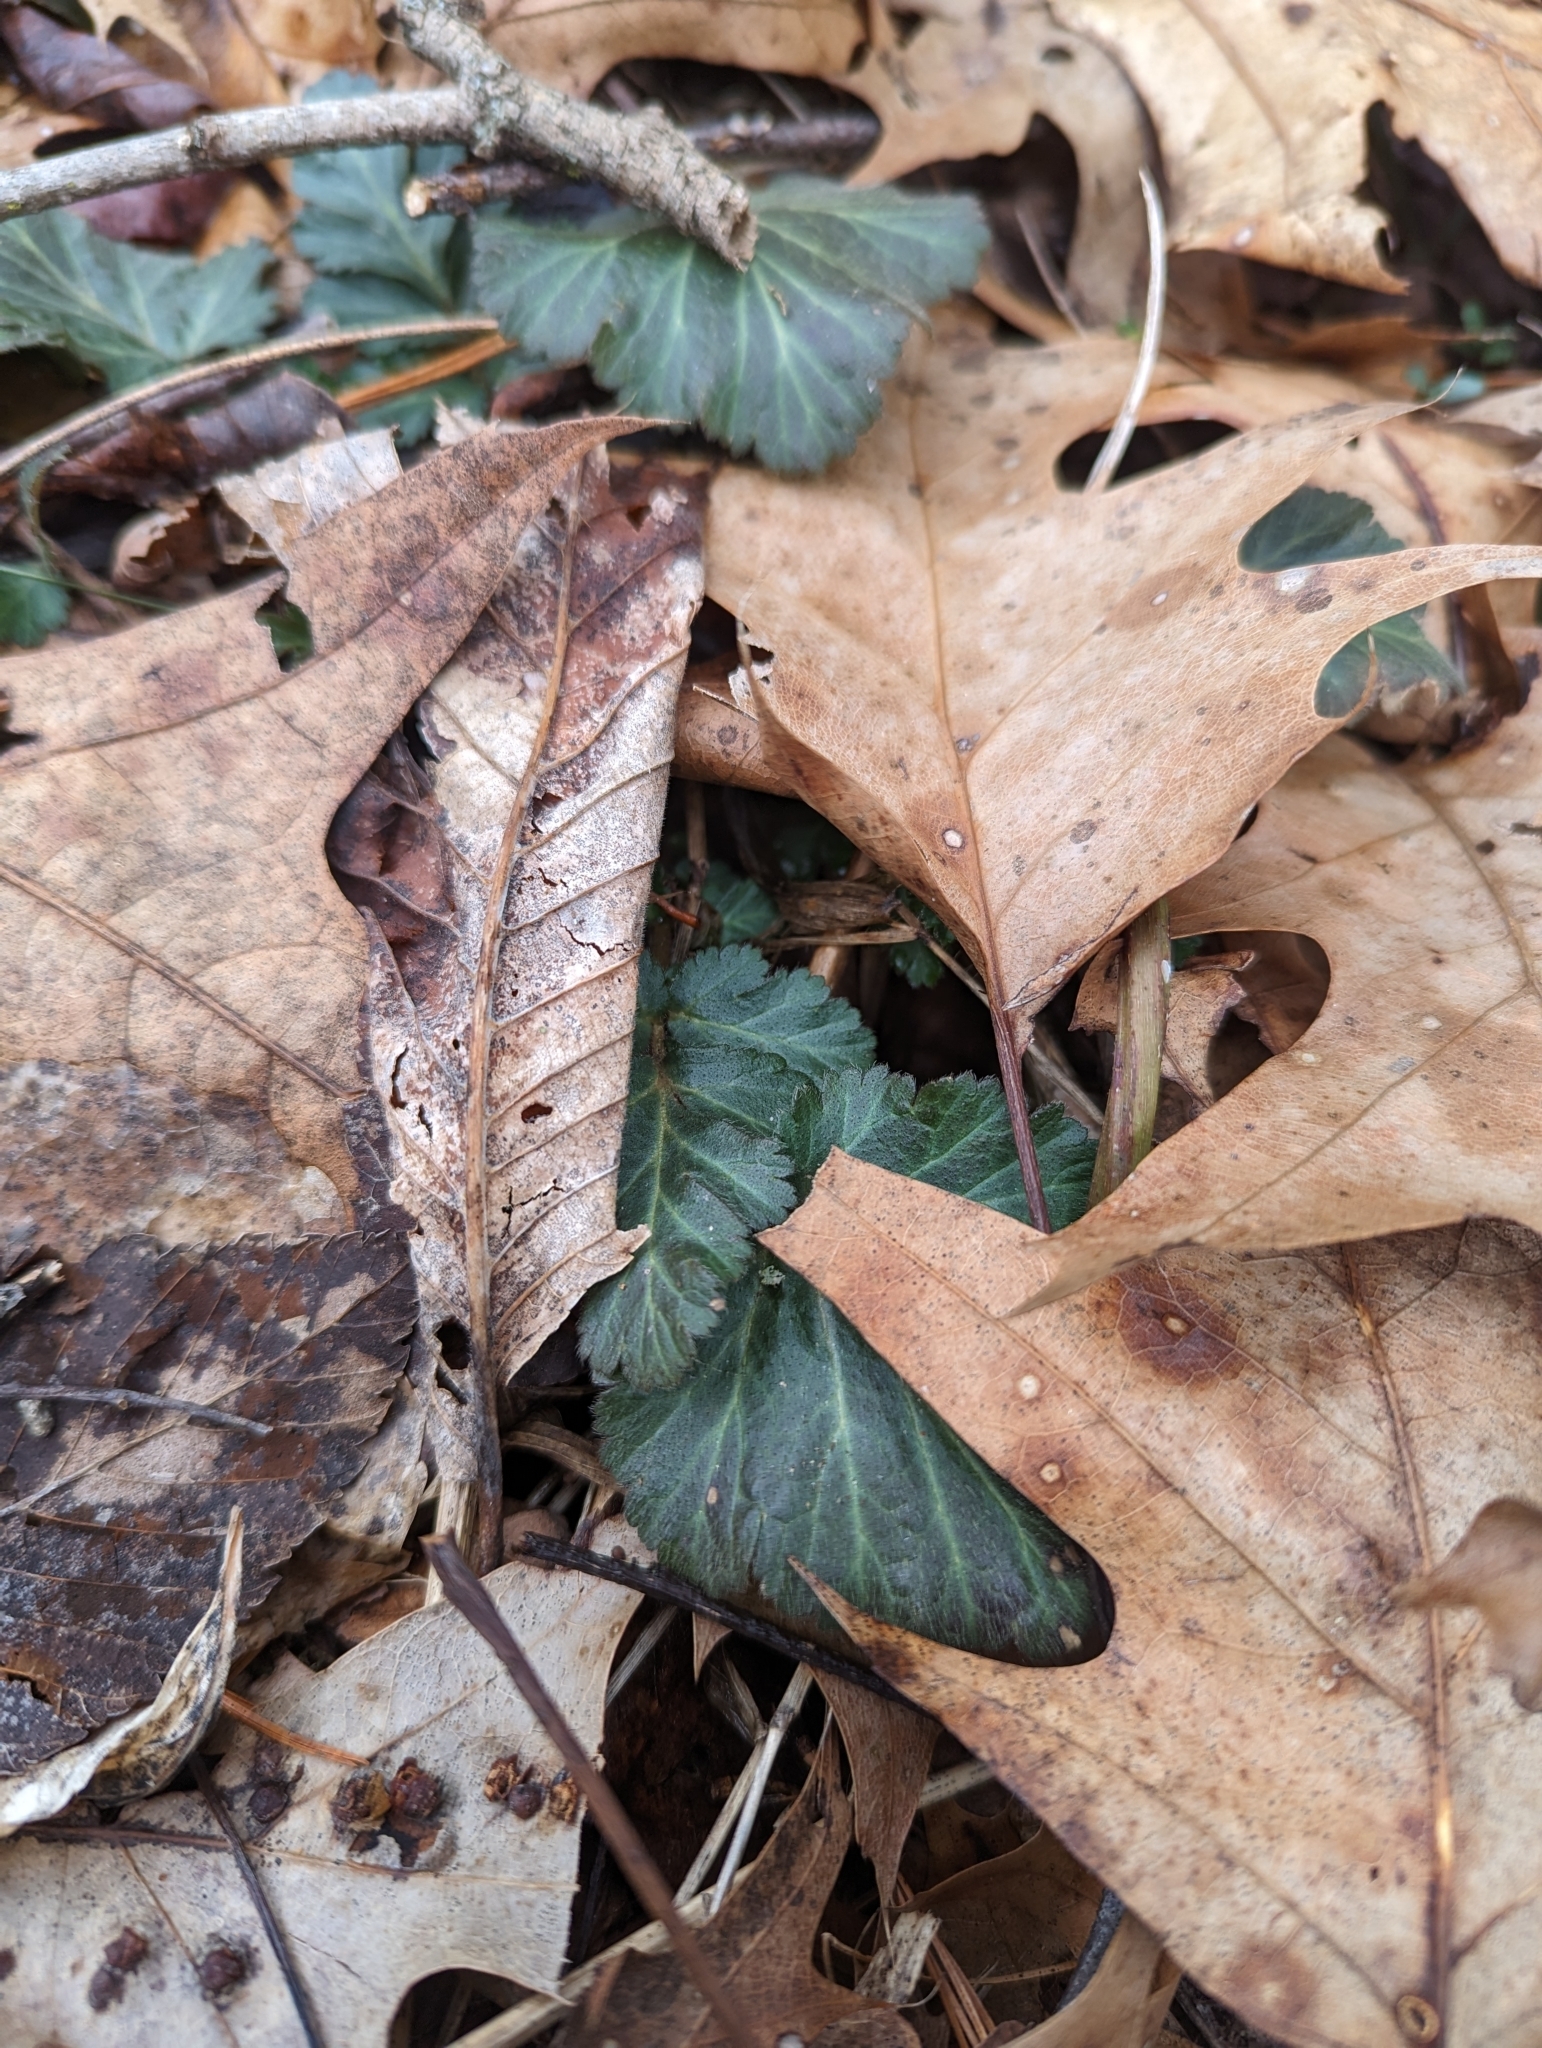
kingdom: Plantae
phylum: Tracheophyta
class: Magnoliopsida
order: Rosales
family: Rosaceae
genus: Geum
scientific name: Geum canadense
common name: White avens
